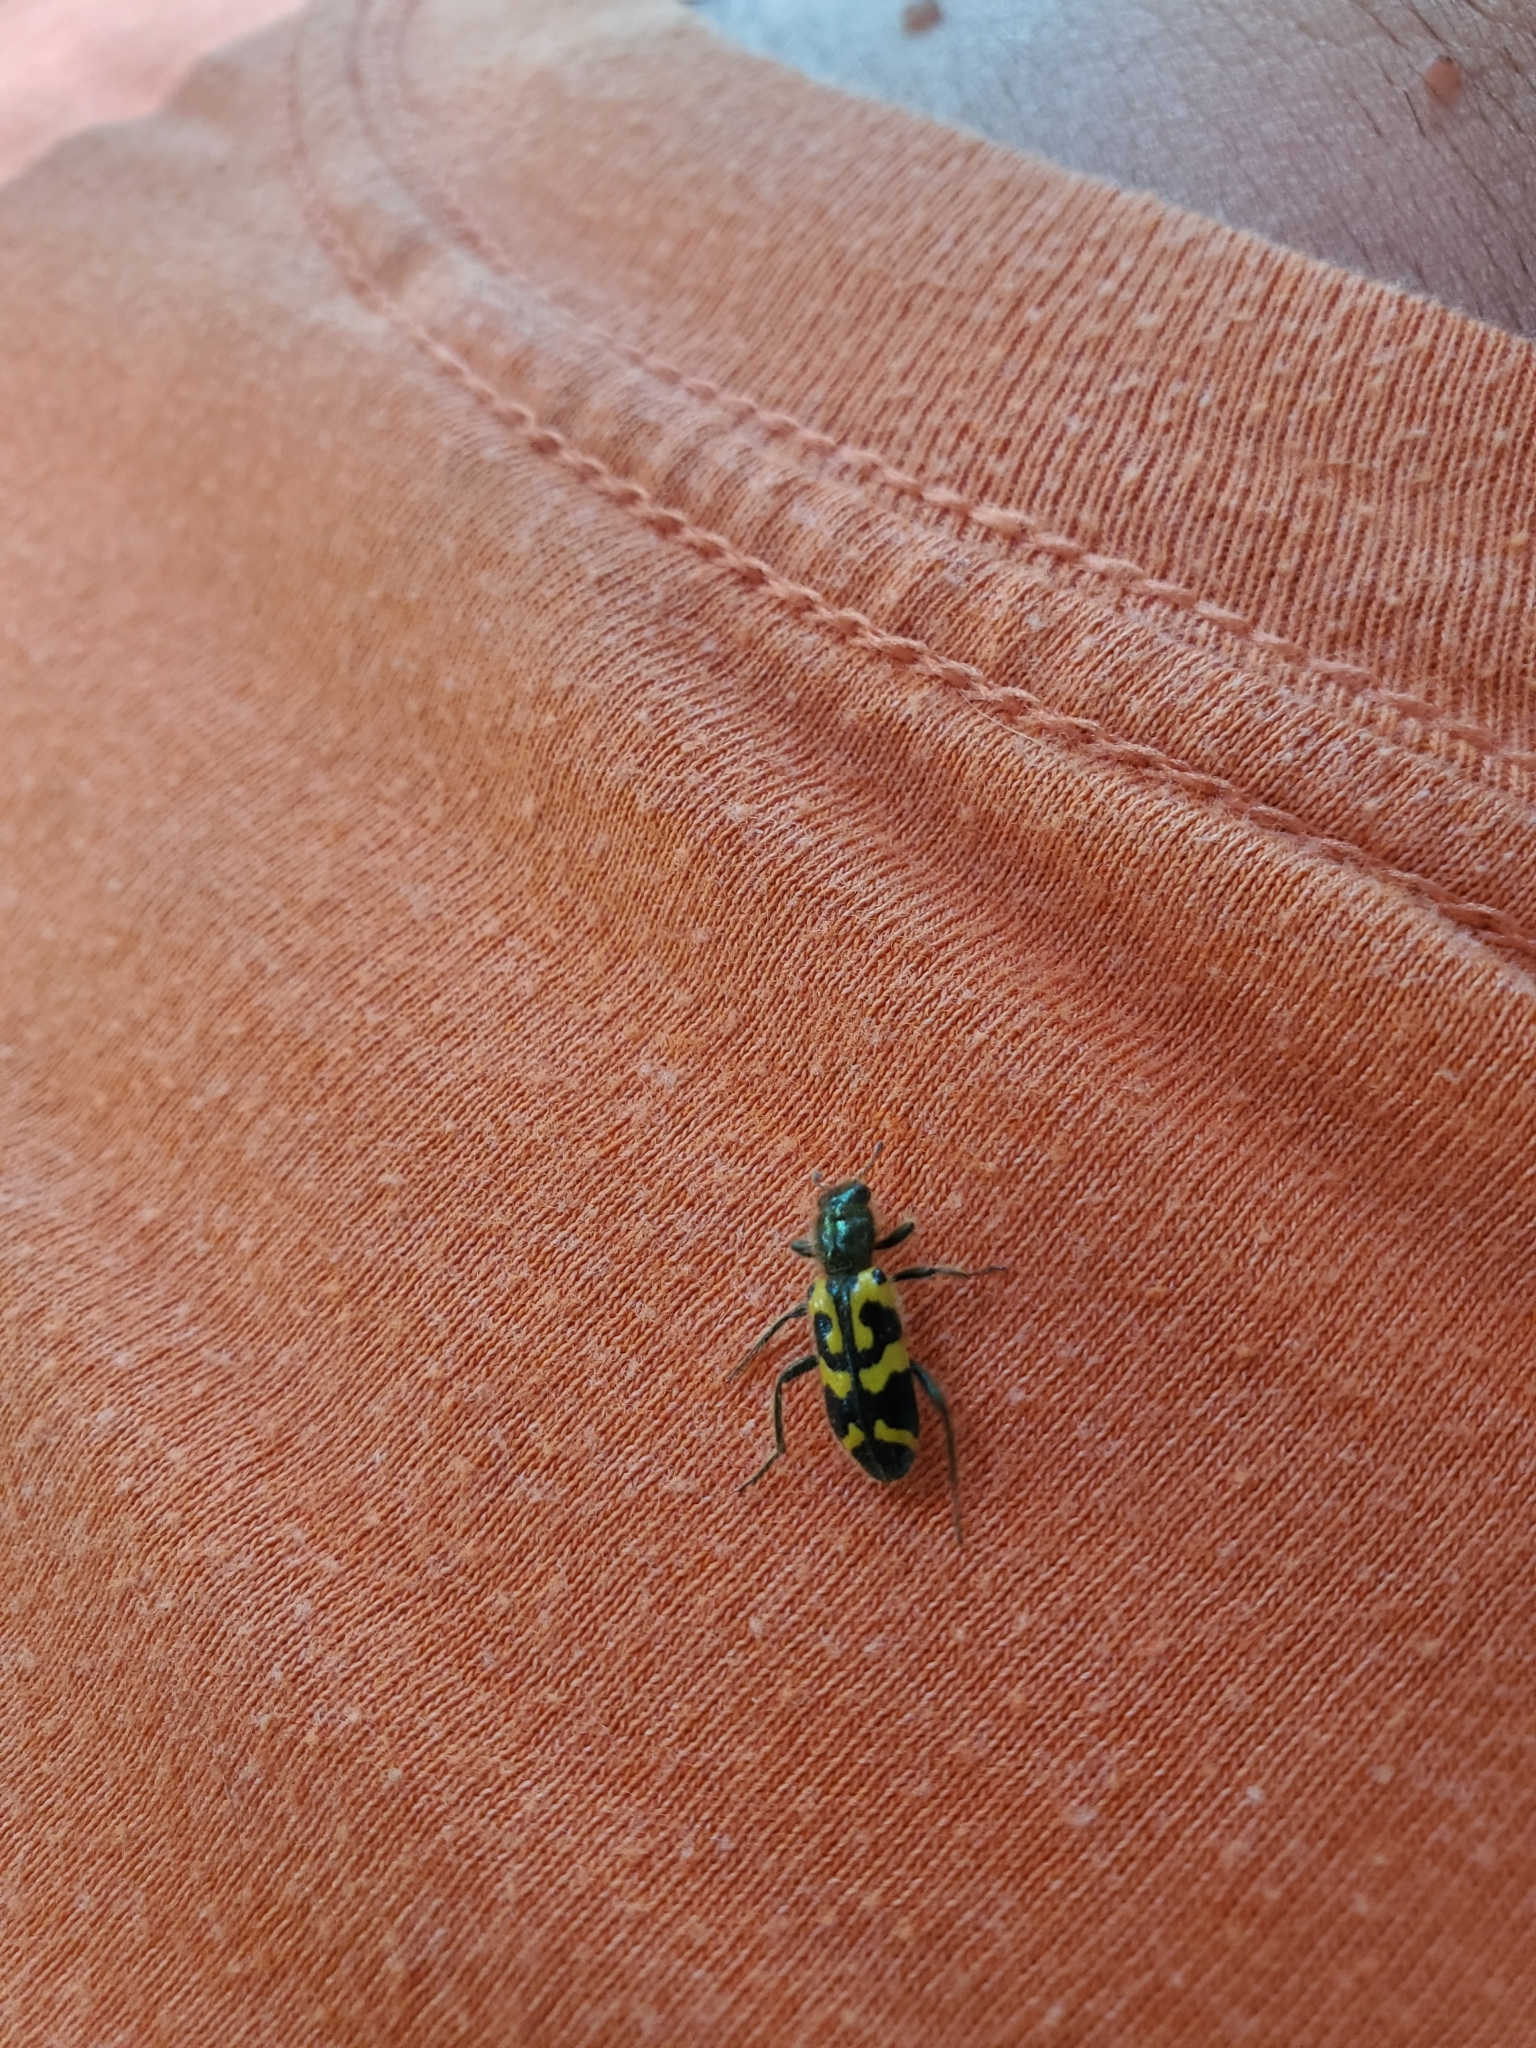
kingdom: Animalia
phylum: Arthropoda
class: Insecta
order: Coleoptera
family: Cleridae
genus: Trichodes
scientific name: Trichodes ornatus
